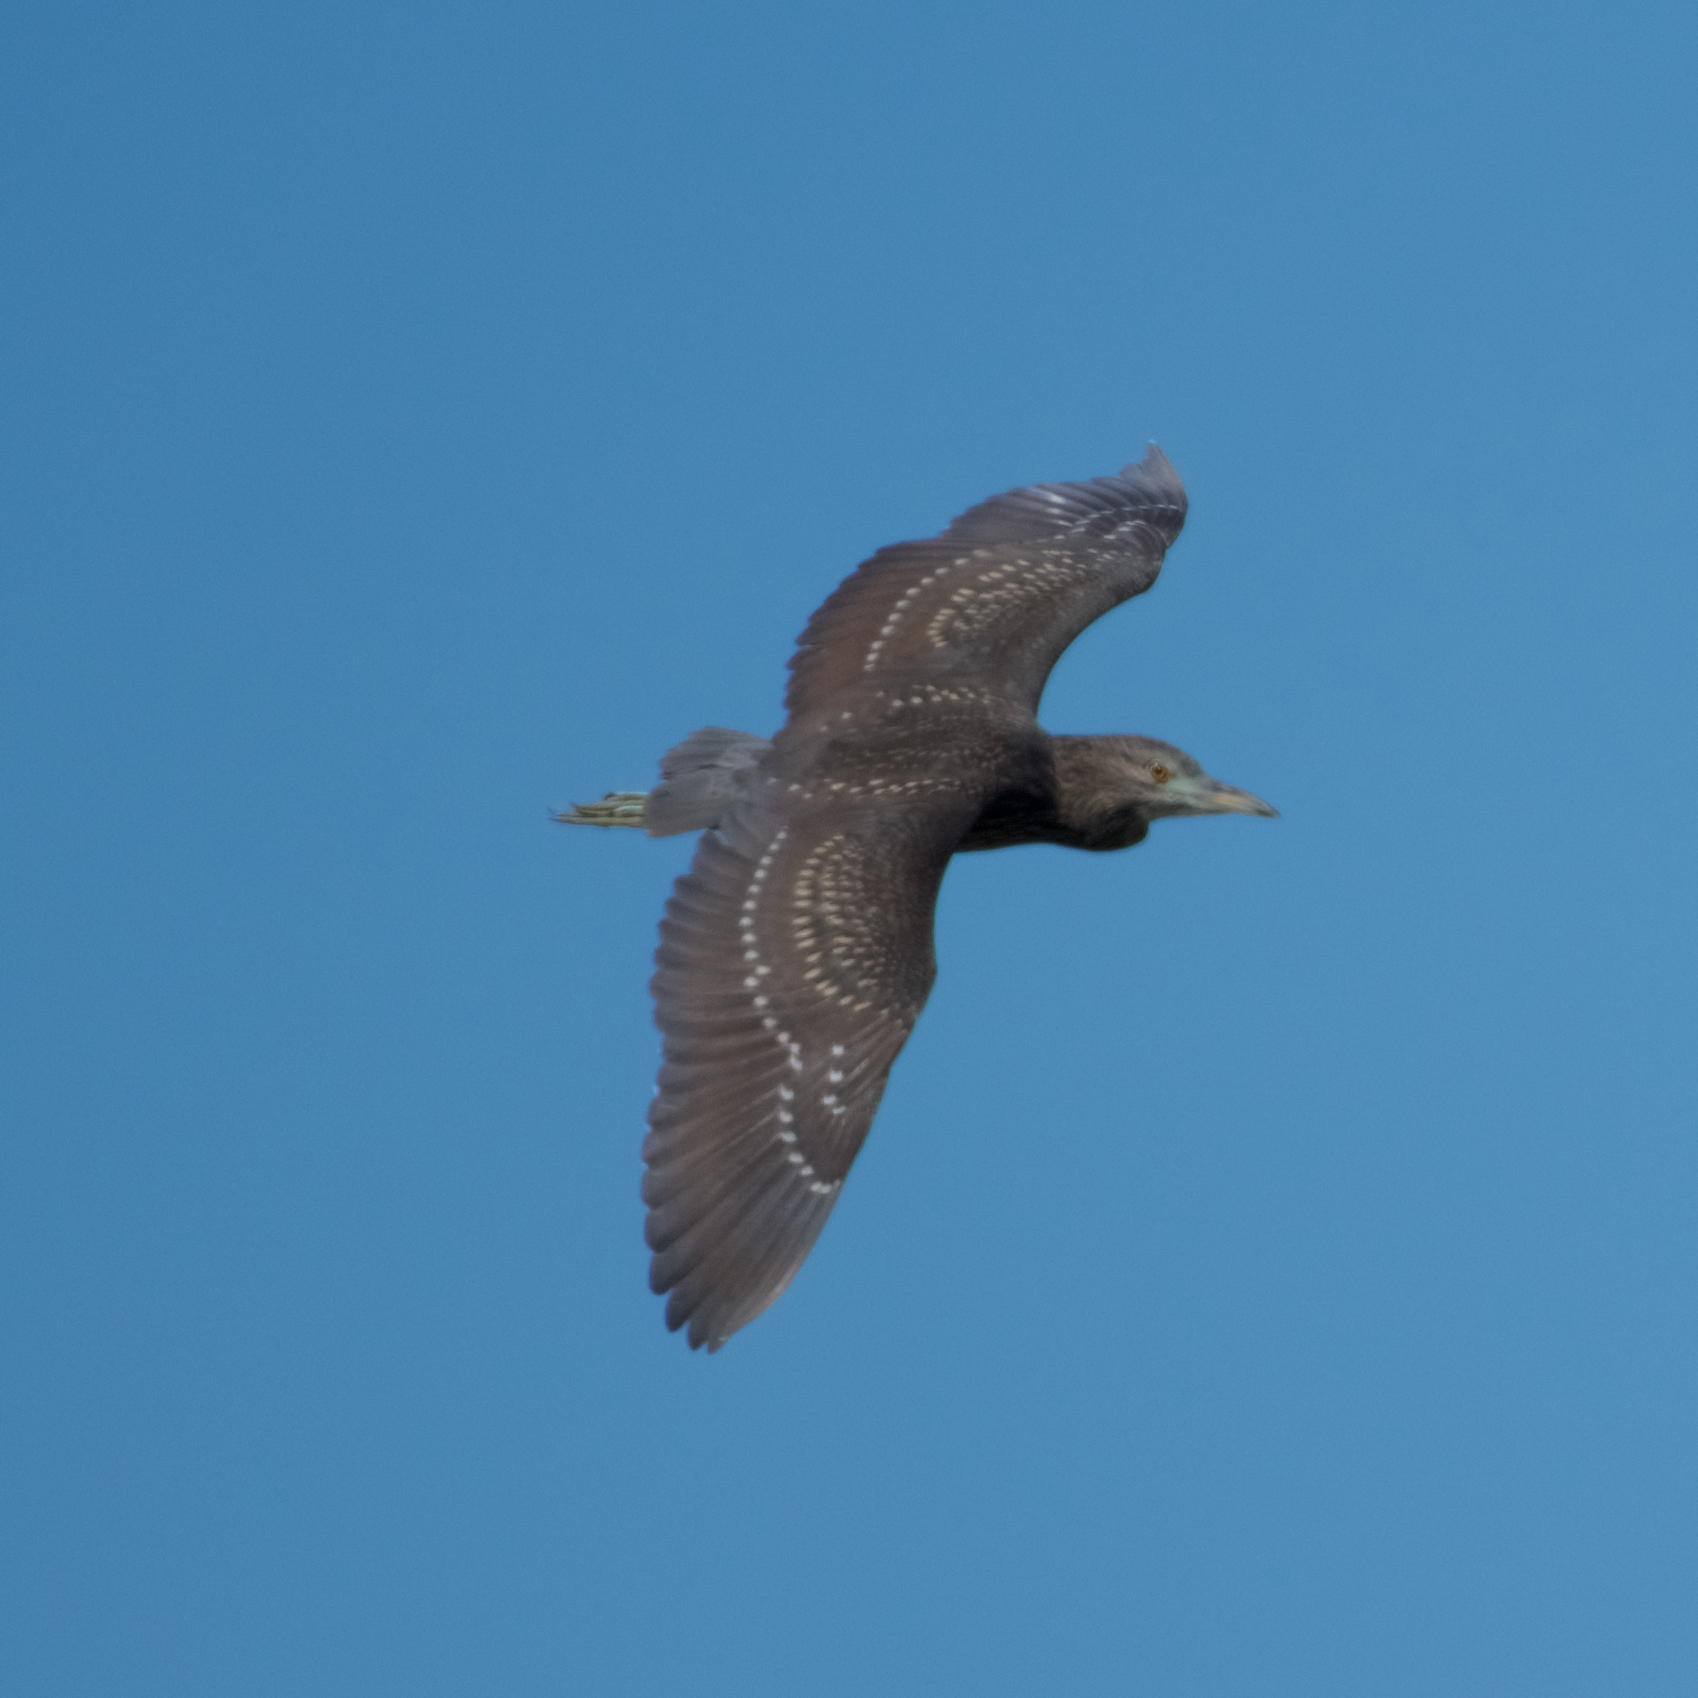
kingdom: Animalia
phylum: Chordata
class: Aves
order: Pelecaniformes
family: Ardeidae
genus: Nycticorax
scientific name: Nycticorax nycticorax
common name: Black-crowned night heron
